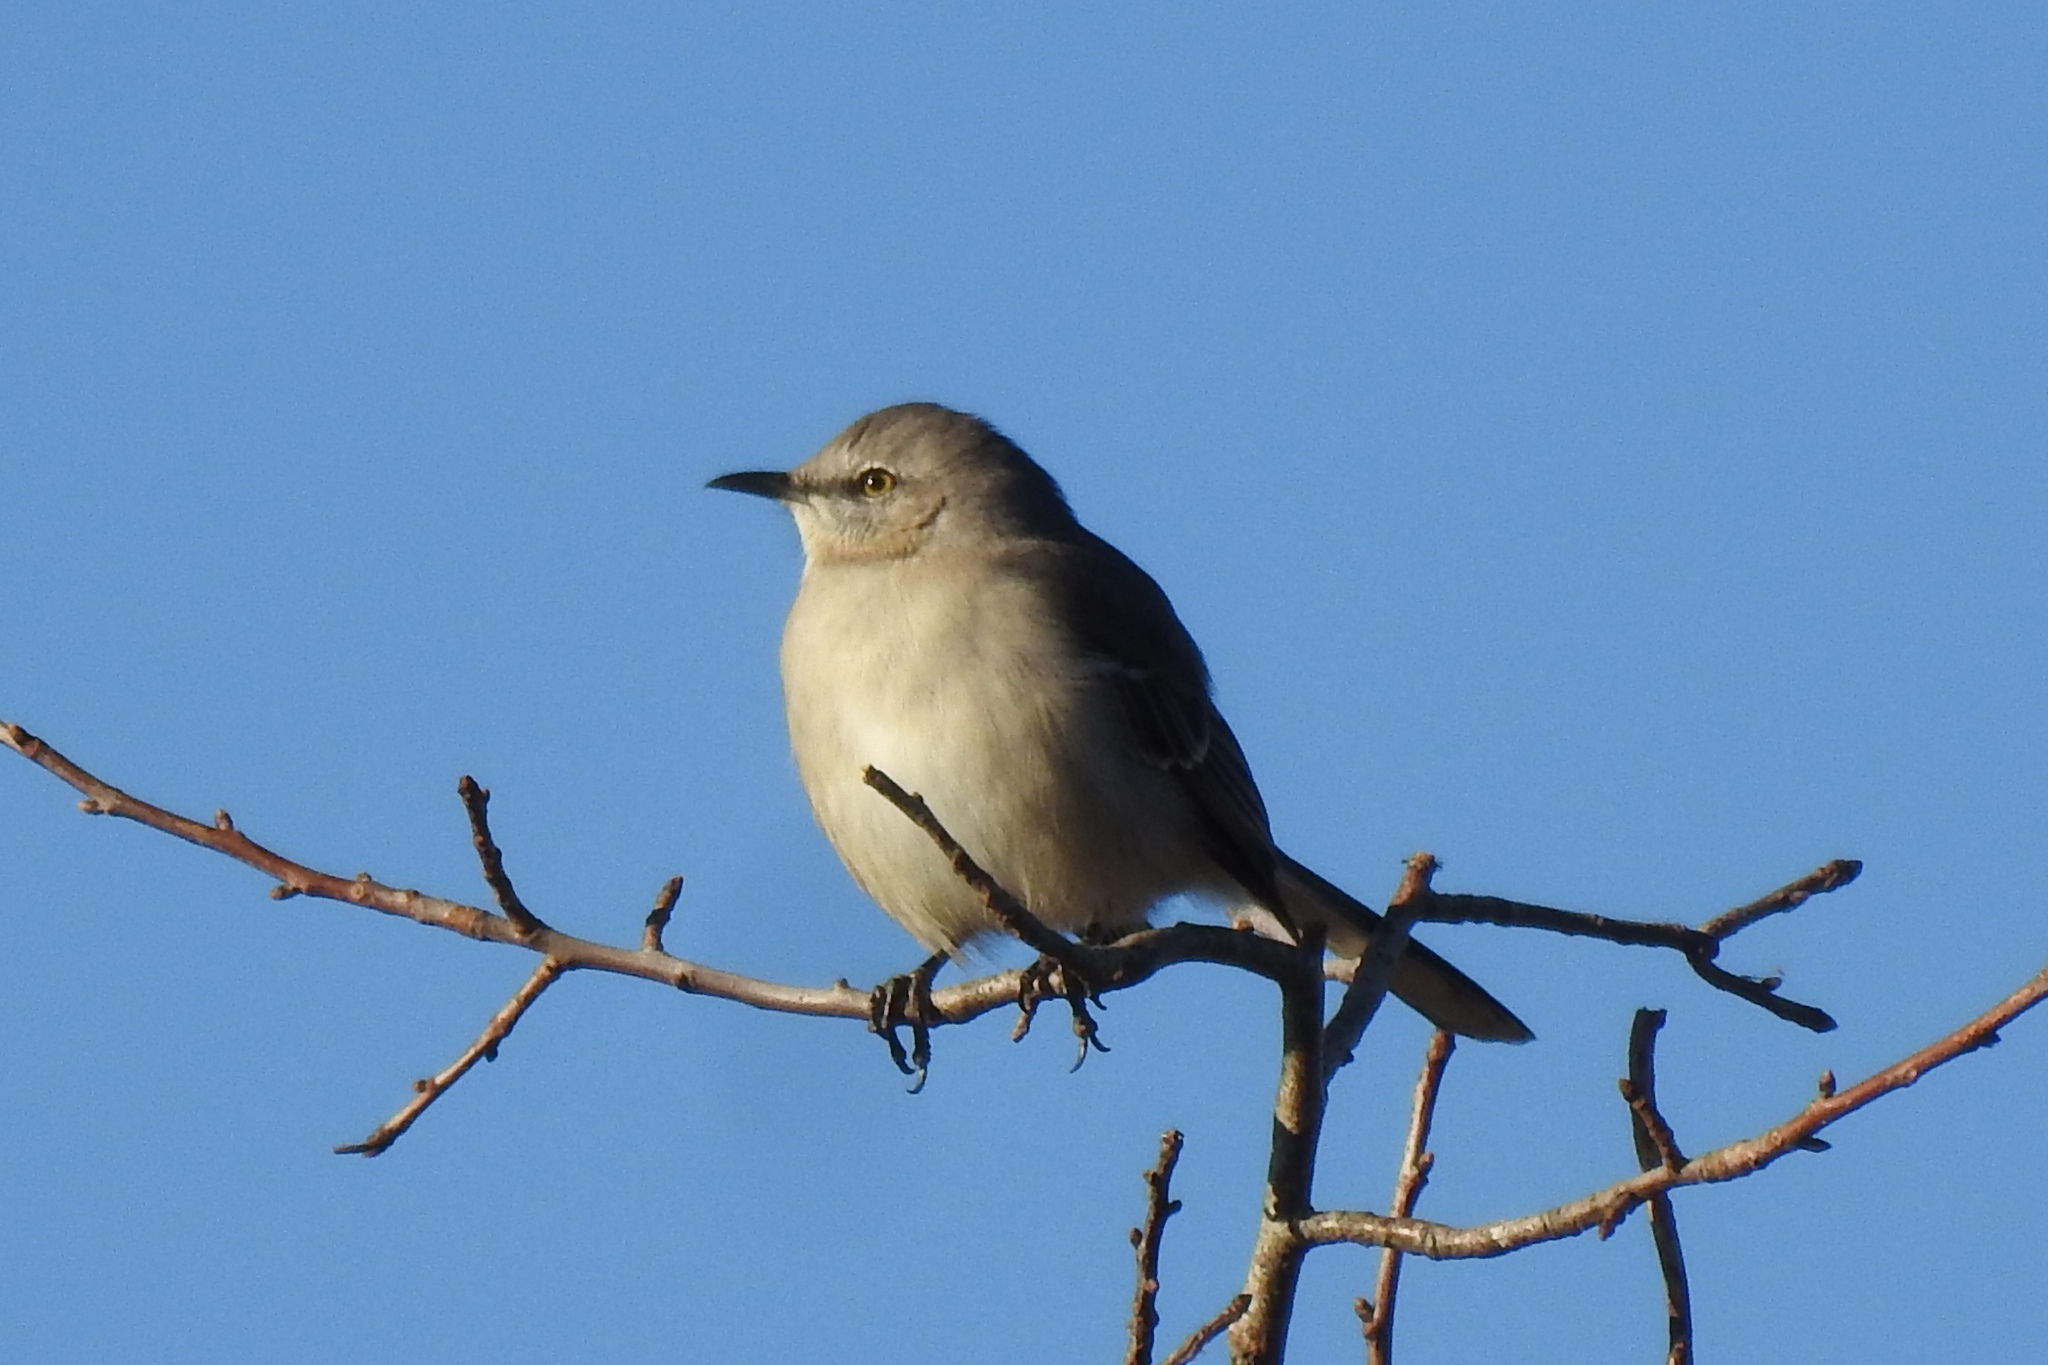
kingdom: Animalia
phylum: Chordata
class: Aves
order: Passeriformes
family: Mimidae
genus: Mimus
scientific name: Mimus polyglottos
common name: Northern mockingbird
